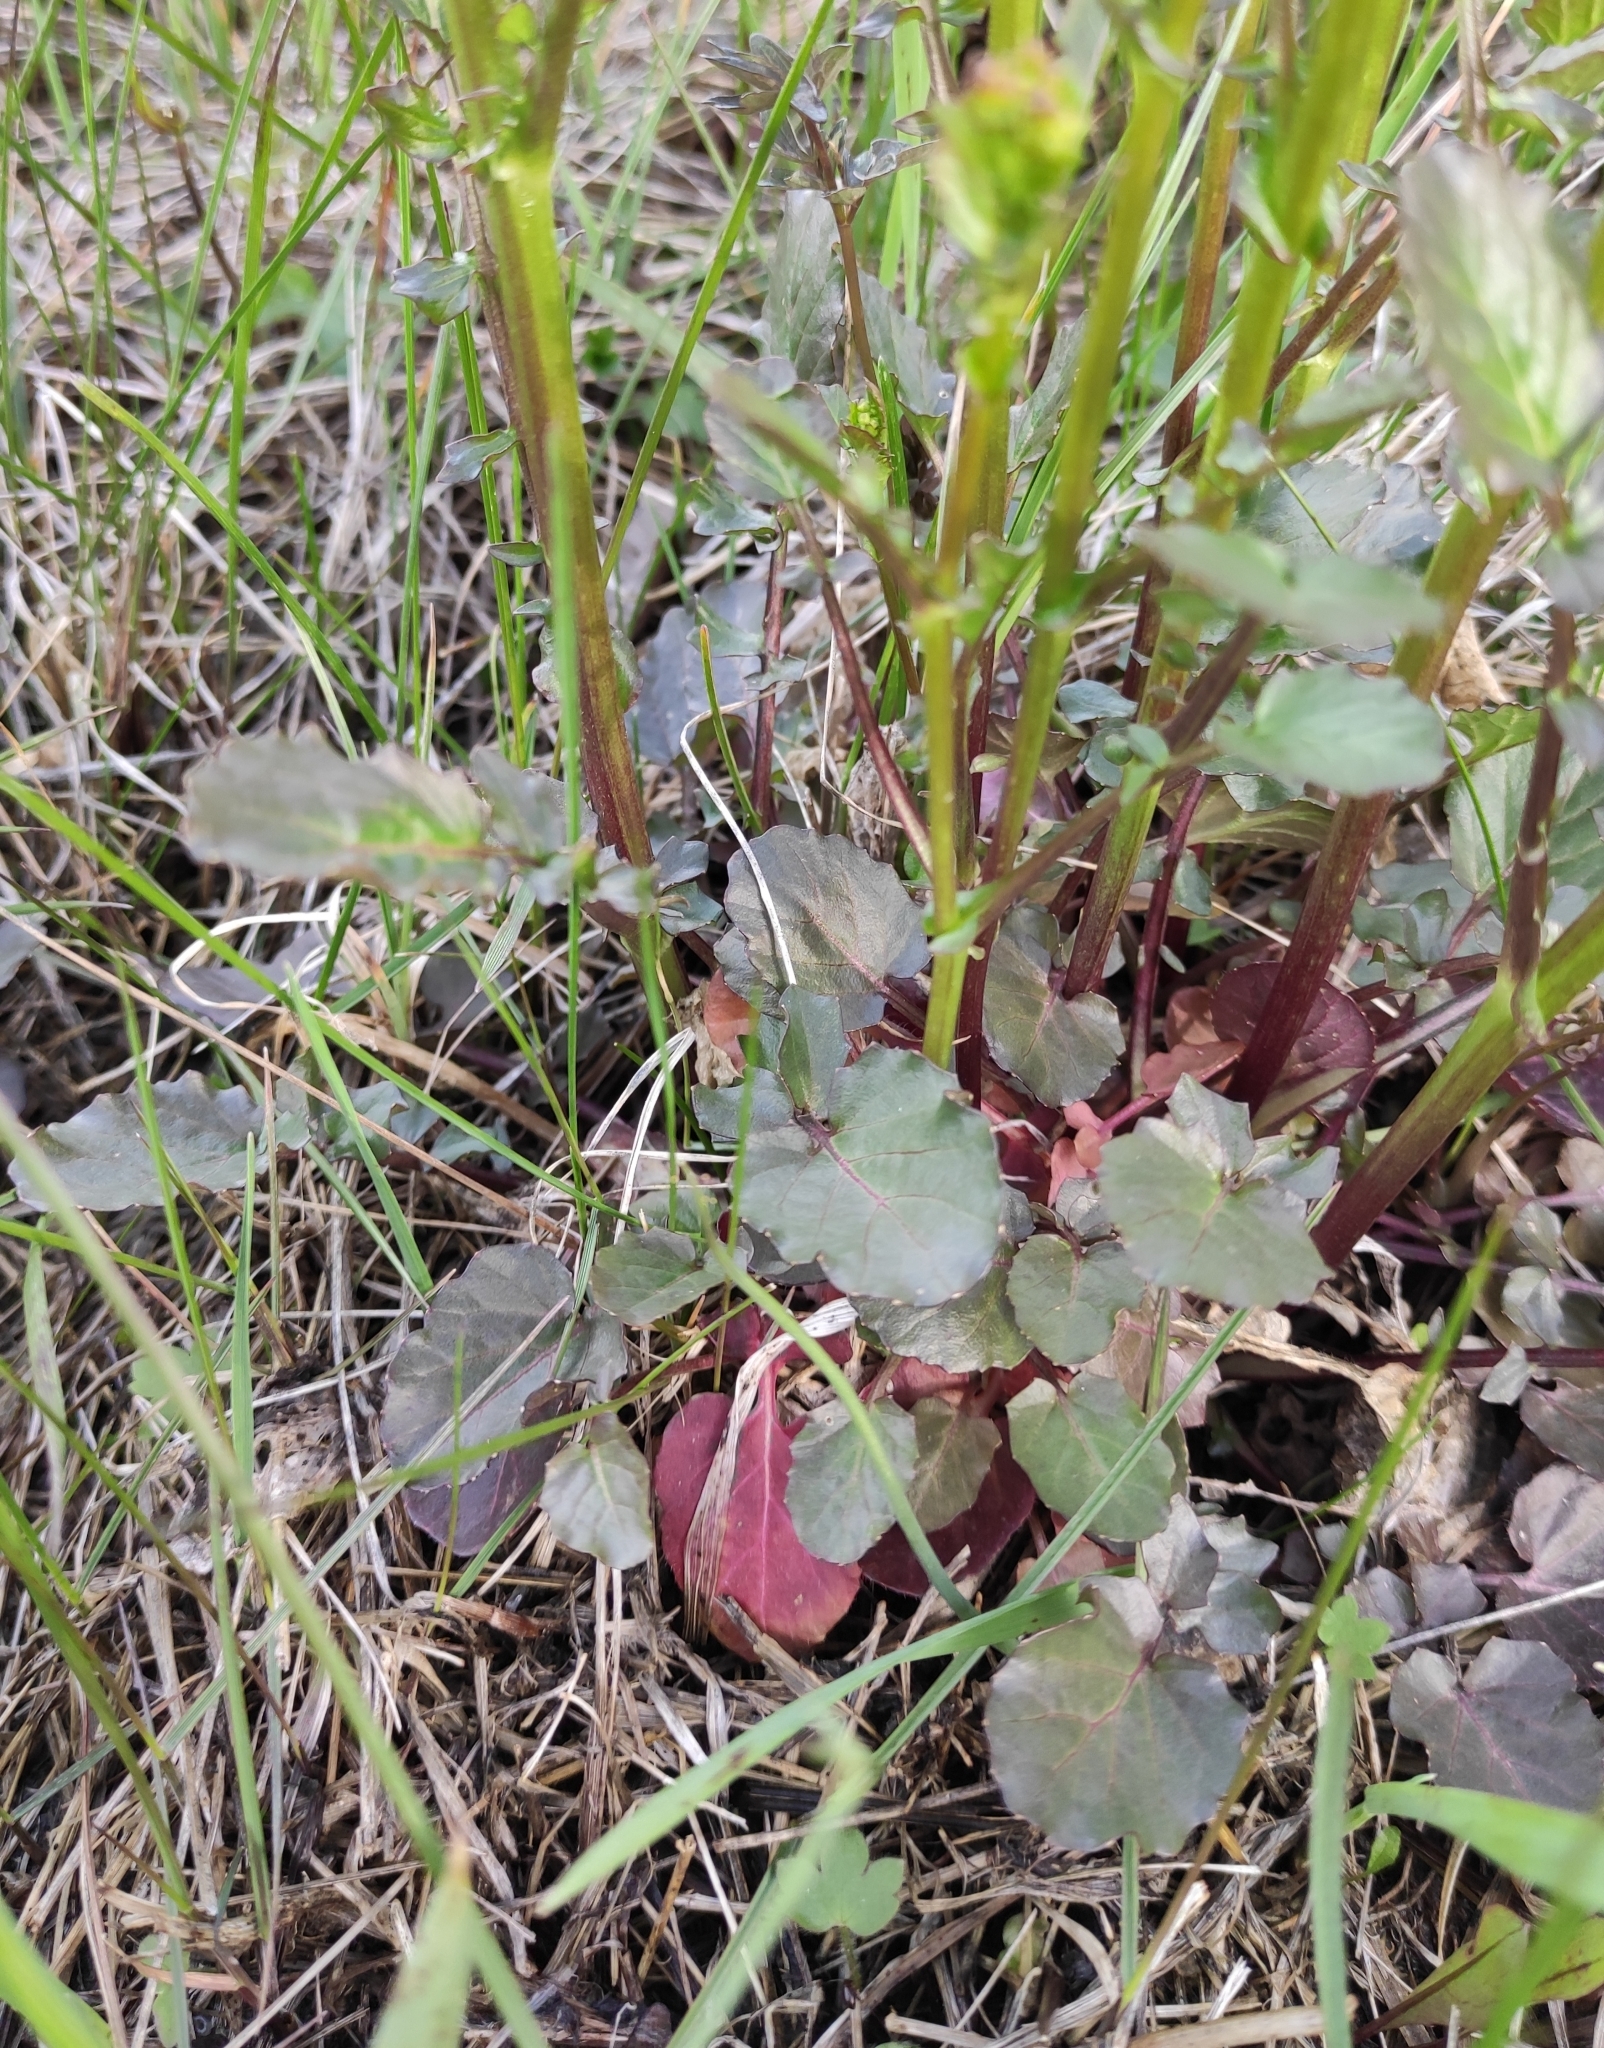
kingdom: Plantae
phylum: Tracheophyta
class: Magnoliopsida
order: Brassicales
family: Brassicaceae
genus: Barbarea
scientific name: Barbarea vulgaris
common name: Cressy-greens
